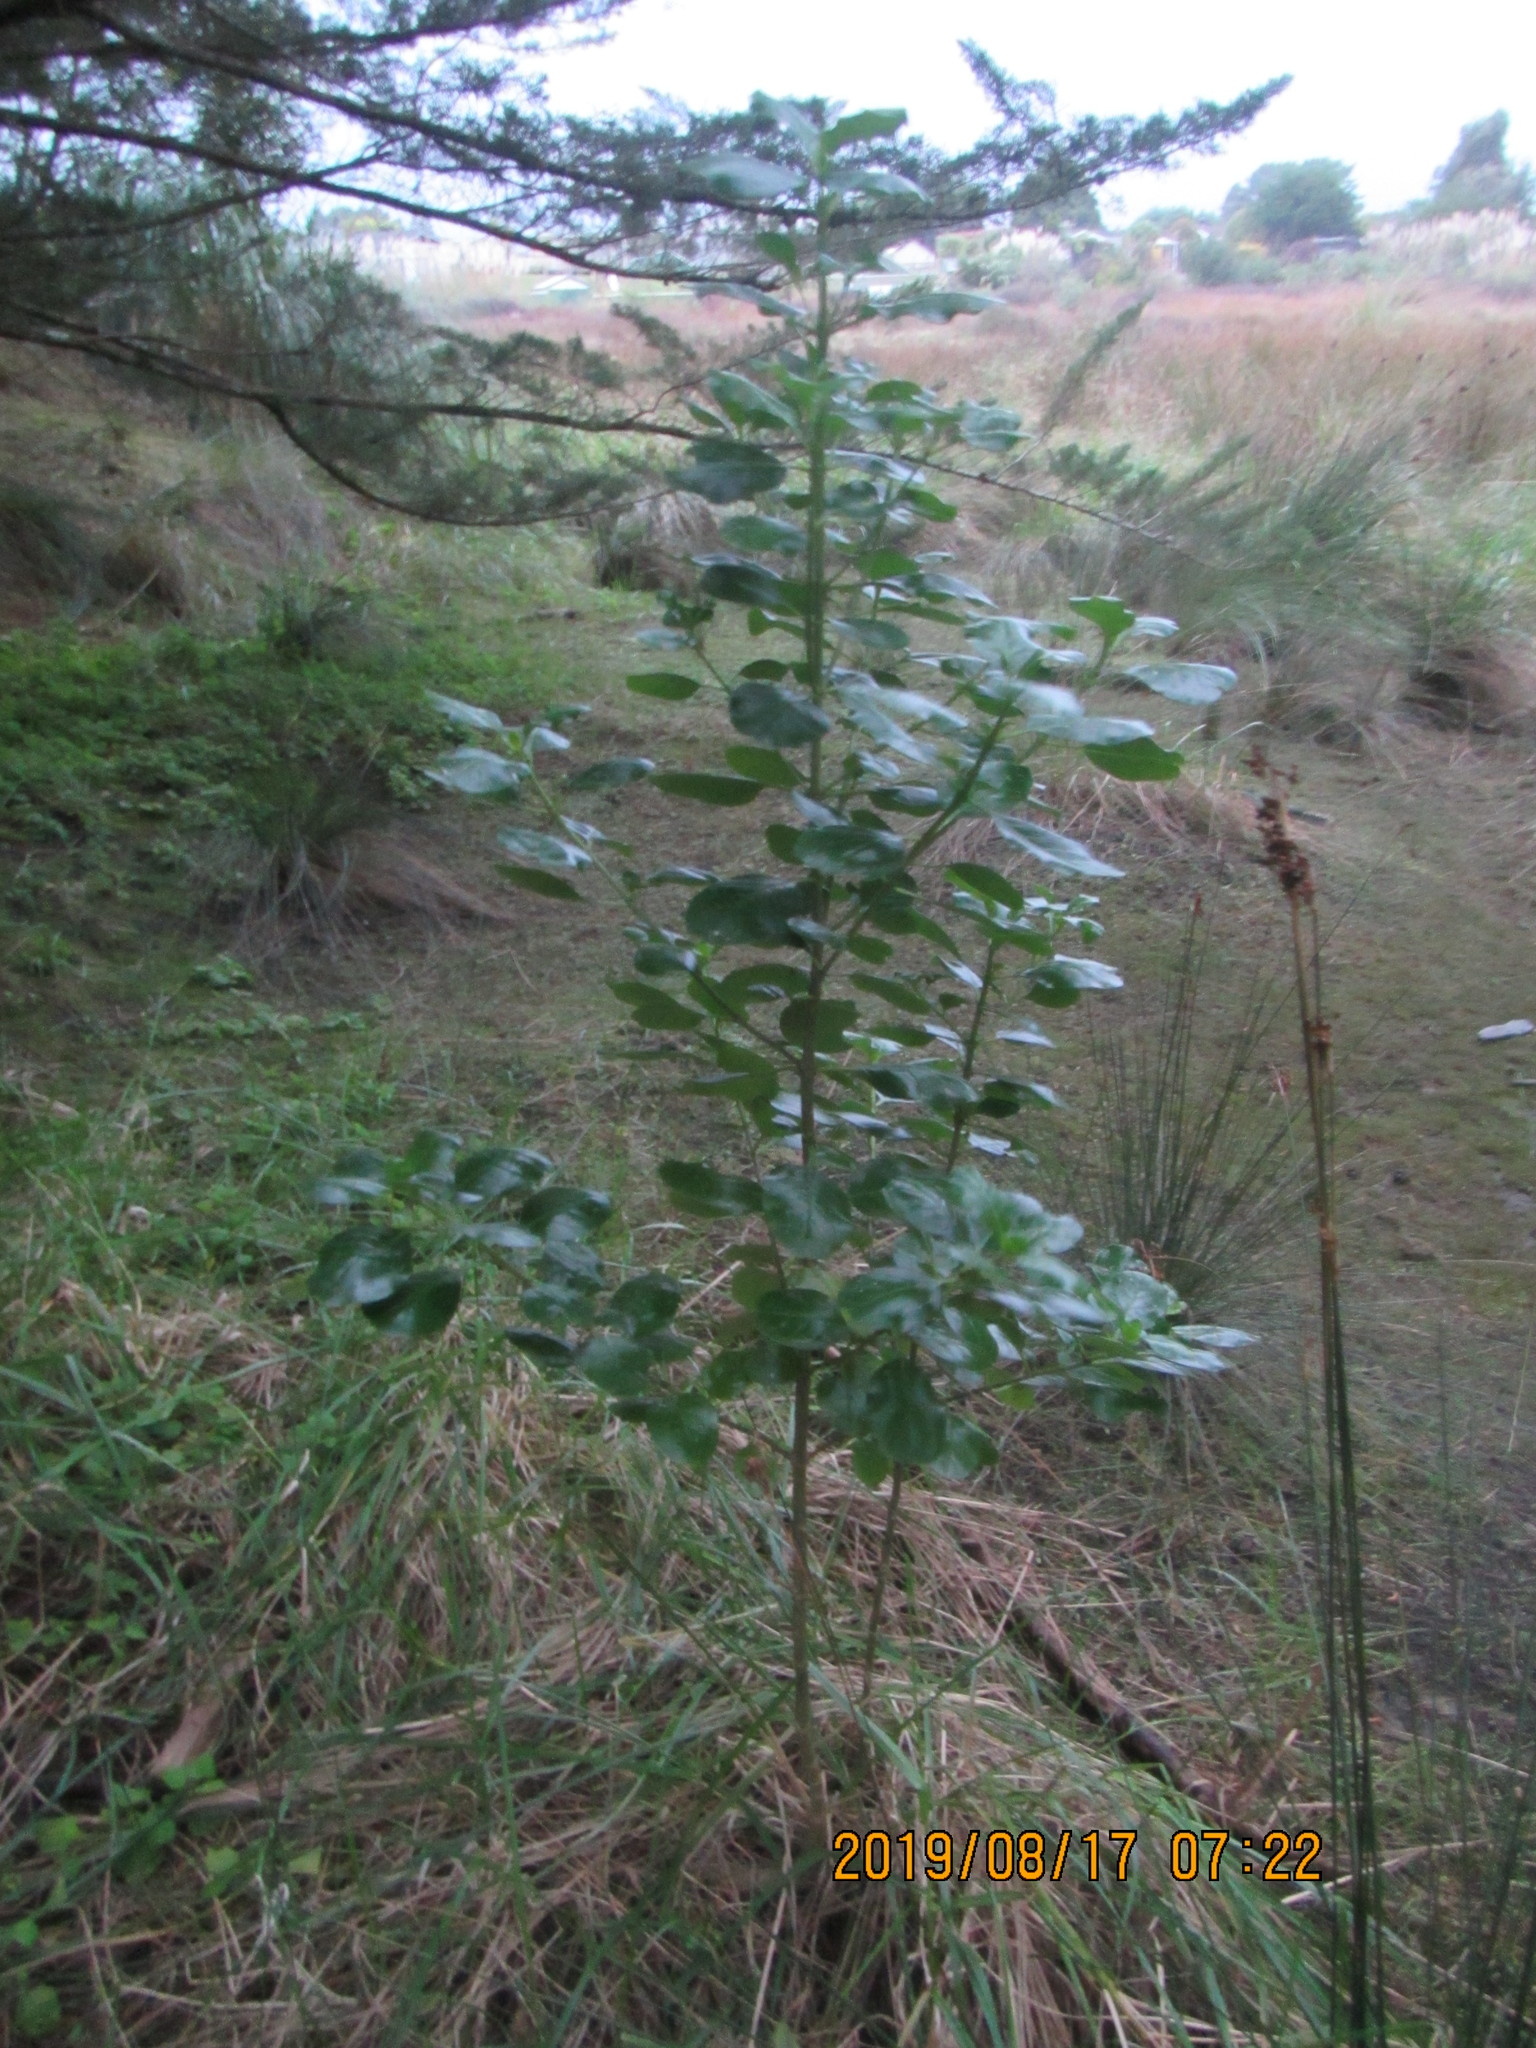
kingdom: Plantae
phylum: Tracheophyta
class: Magnoliopsida
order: Gentianales
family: Rubiaceae
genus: Coprosma
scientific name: Coprosma repens
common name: Tree bedstraw
